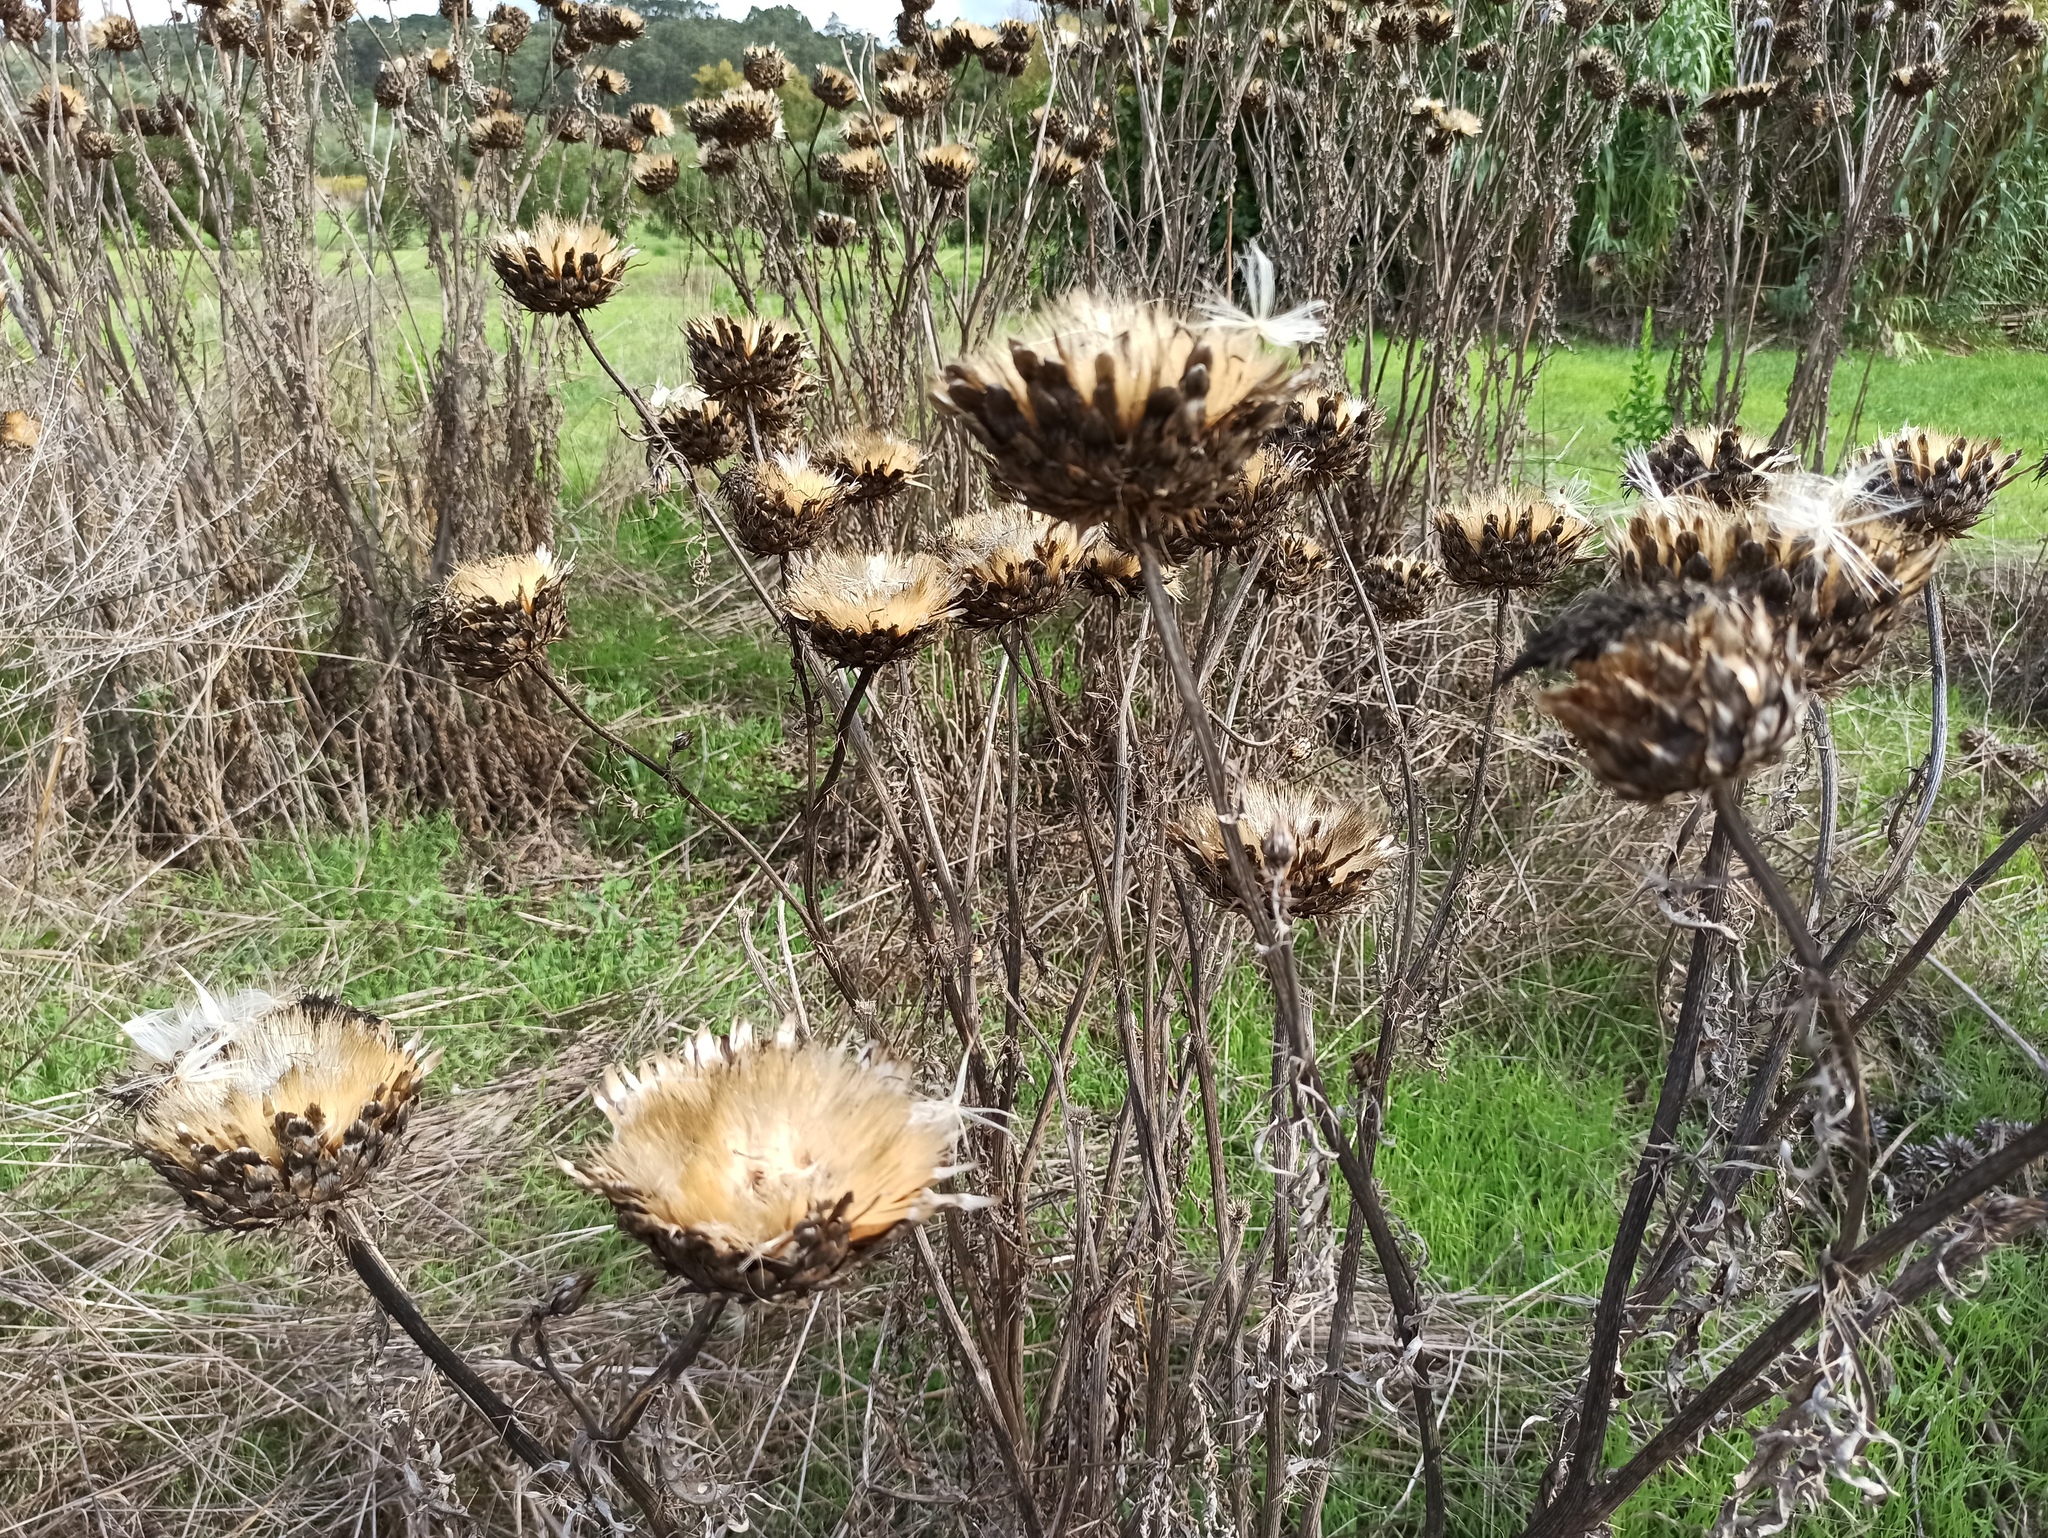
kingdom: Plantae
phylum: Tracheophyta
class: Magnoliopsida
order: Asterales
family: Asteraceae
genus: Cynara
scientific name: Cynara cardunculus
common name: Globe artichoke
